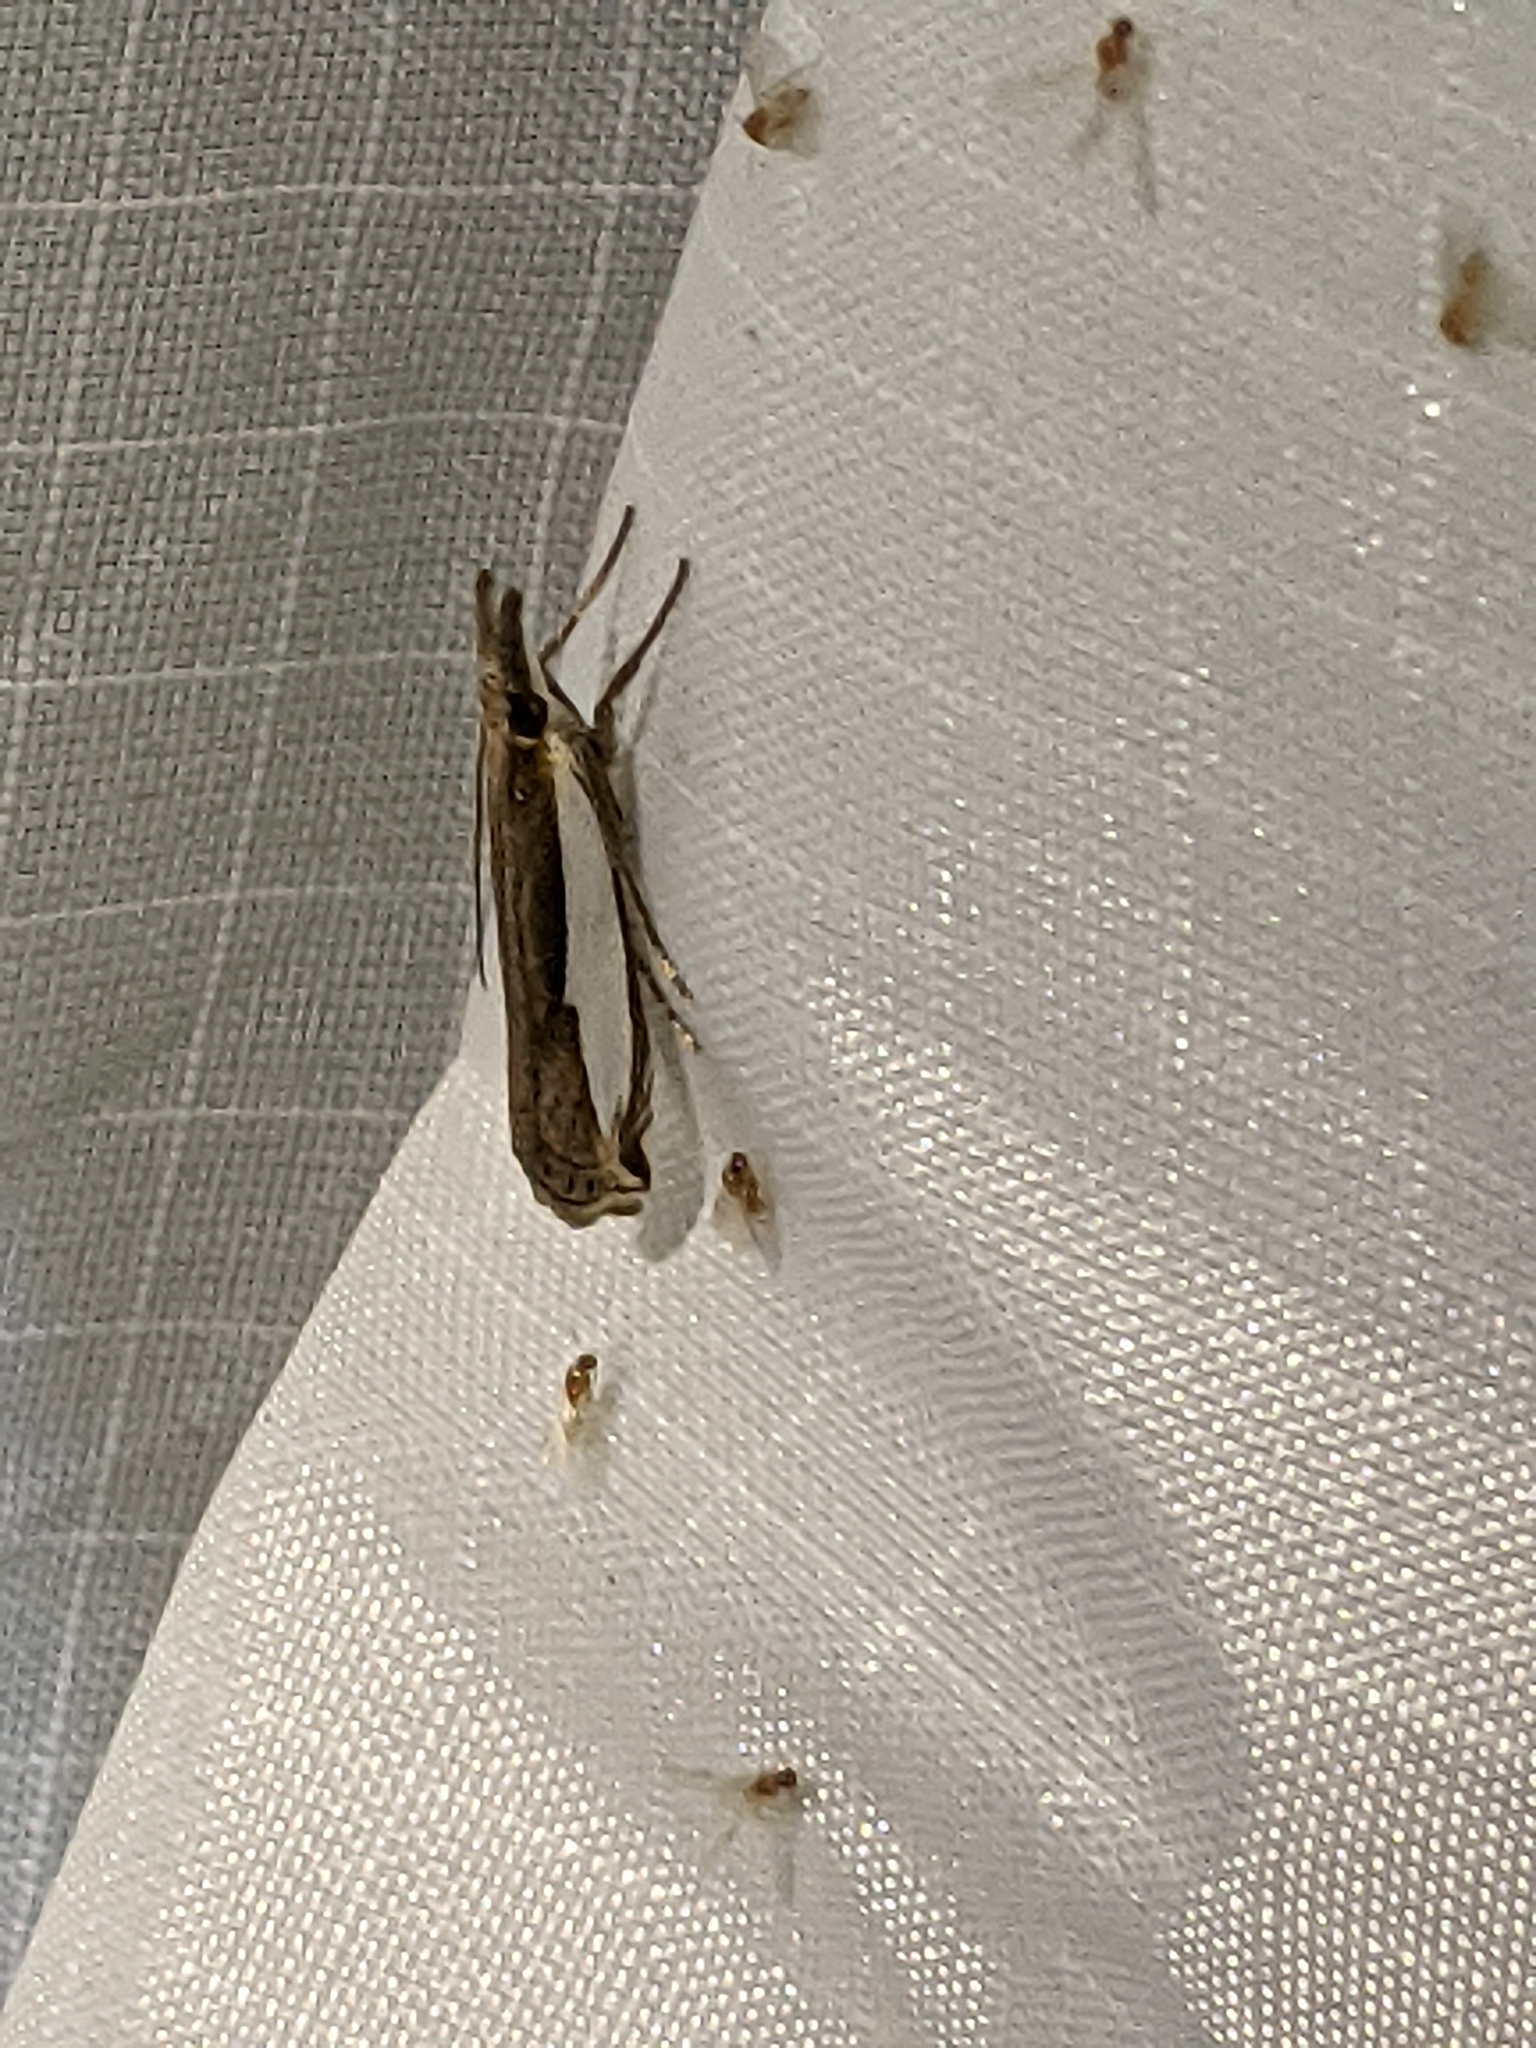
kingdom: Animalia
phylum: Arthropoda
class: Insecta
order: Lepidoptera
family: Crambidae
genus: Crambus
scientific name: Crambus leachellus
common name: Leach's grass-veneer
